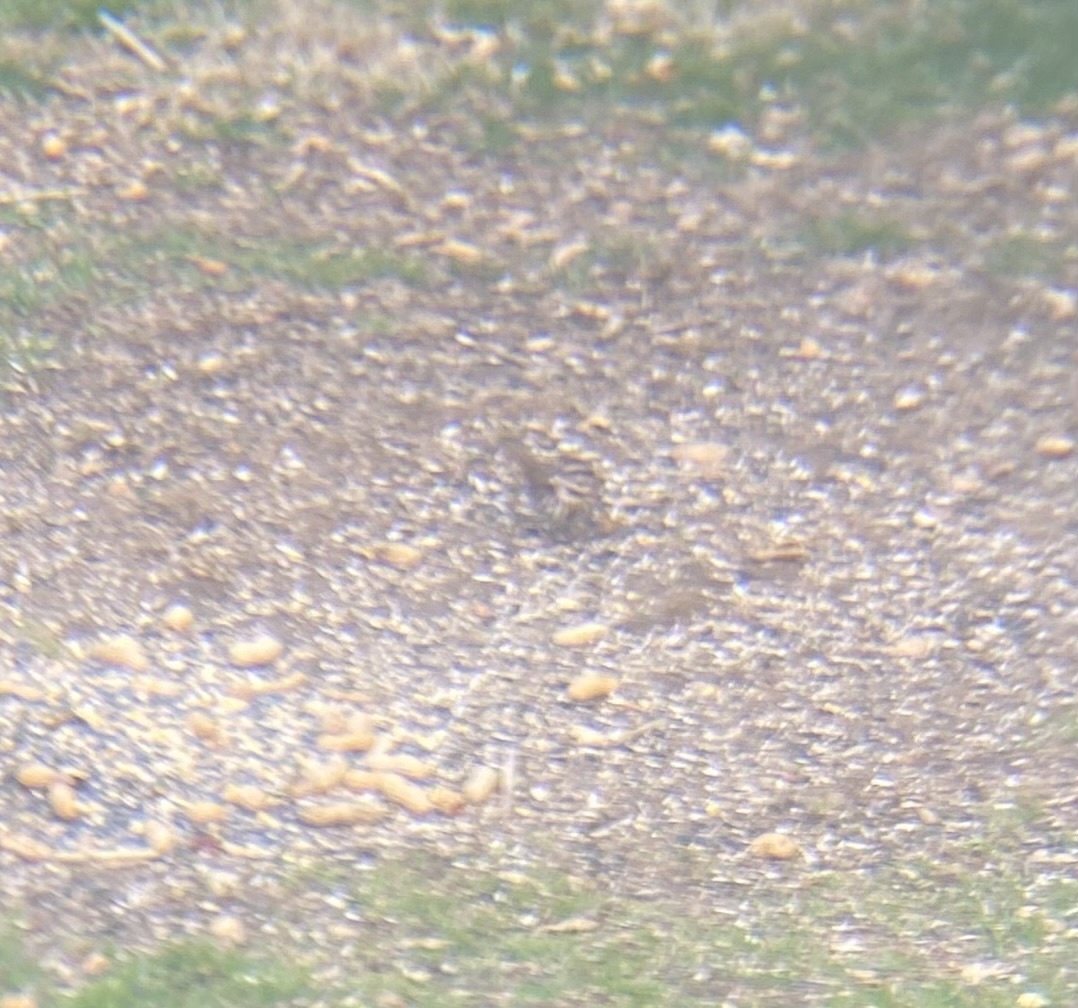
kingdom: Animalia
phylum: Chordata
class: Aves
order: Passeriformes
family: Passerellidae
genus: Melospiza
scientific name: Melospiza melodia
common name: Song sparrow
